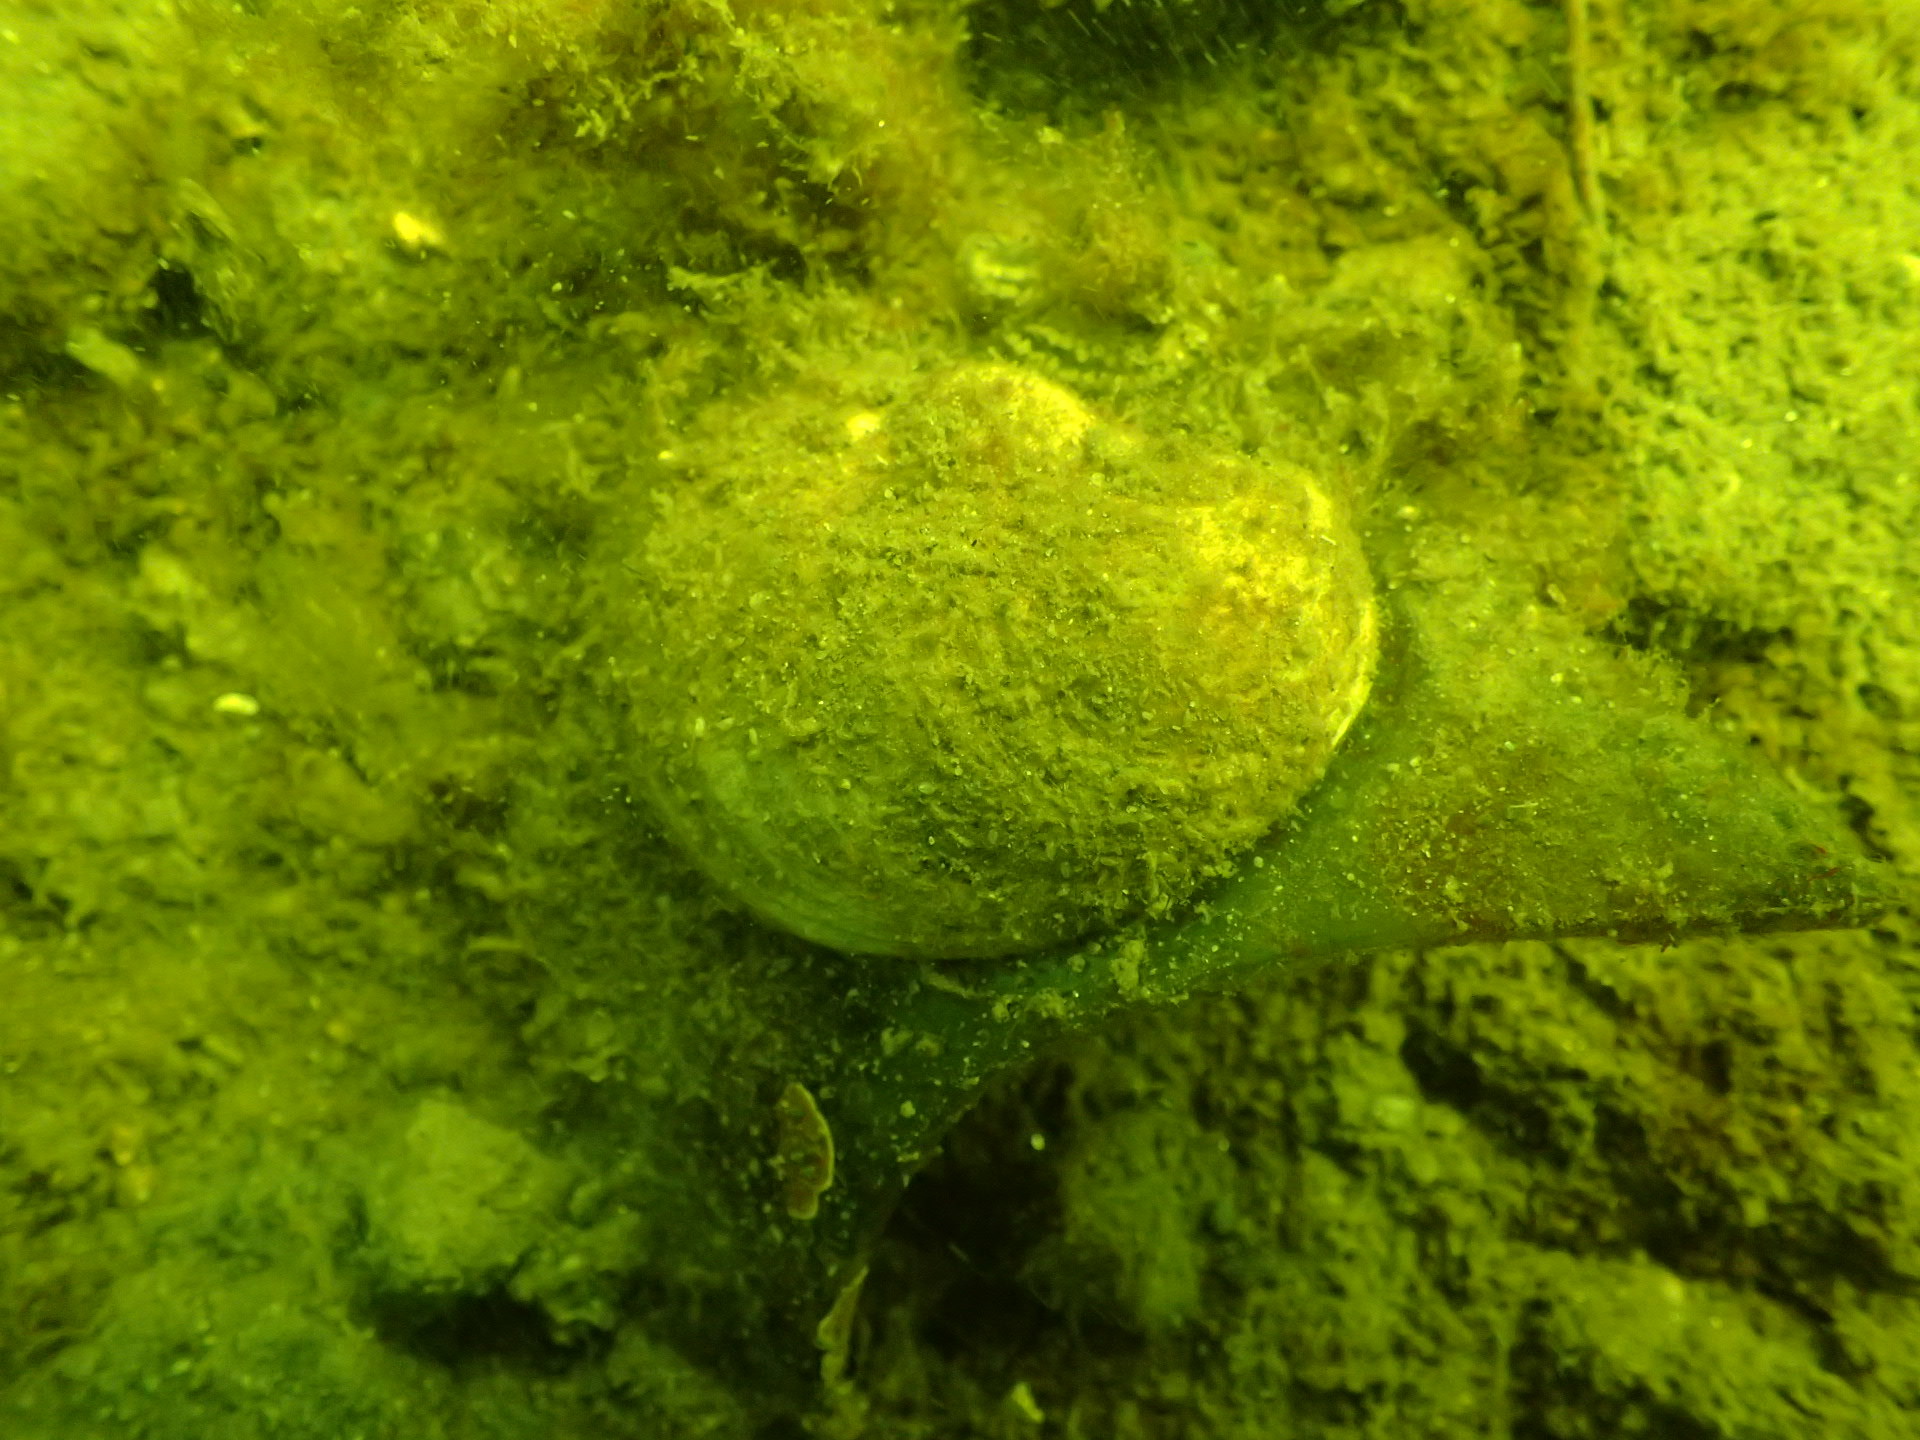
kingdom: Animalia
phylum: Mollusca
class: Gastropoda
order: Littorinimorpha
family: Calyptraeidae
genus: Crepidula
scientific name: Crepidula fornicata
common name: Slipper limpet
